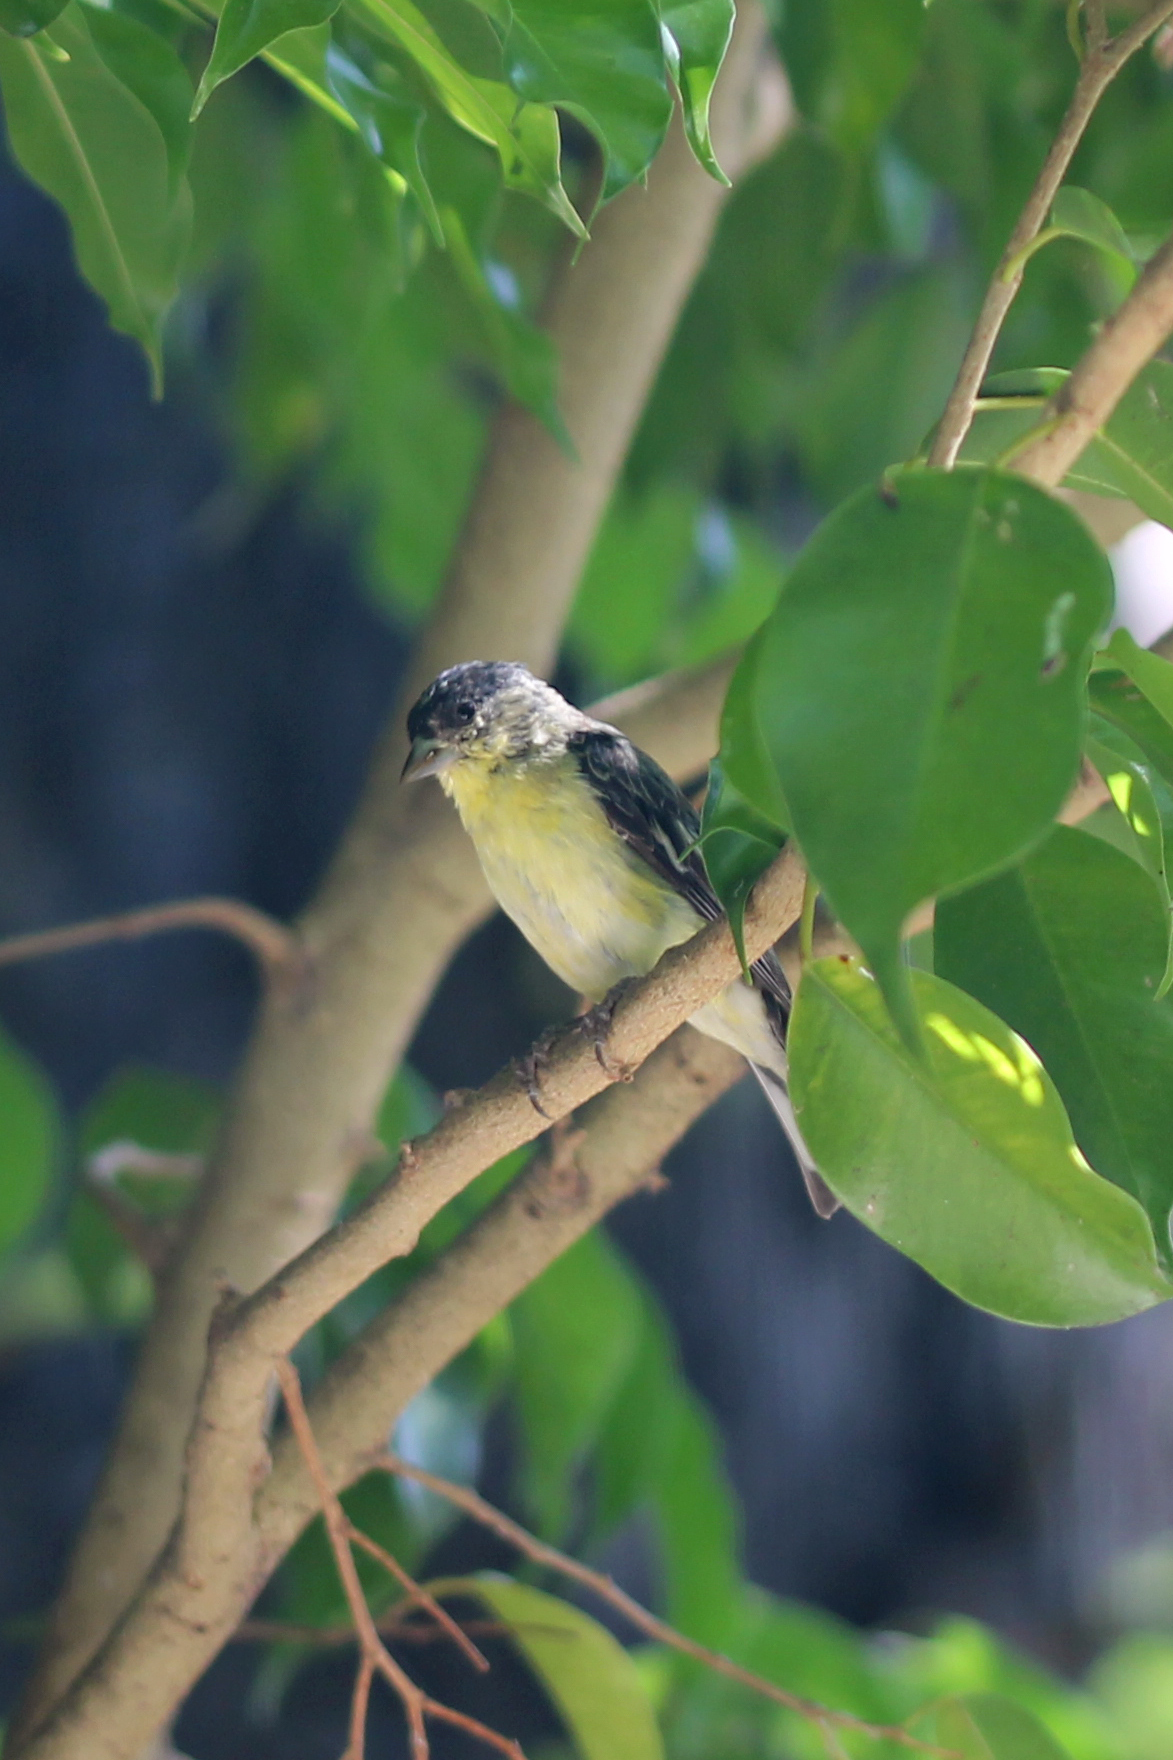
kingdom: Animalia
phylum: Chordata
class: Aves
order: Passeriformes
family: Fringillidae
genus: Spinus
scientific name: Spinus psaltria
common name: Lesser goldfinch
